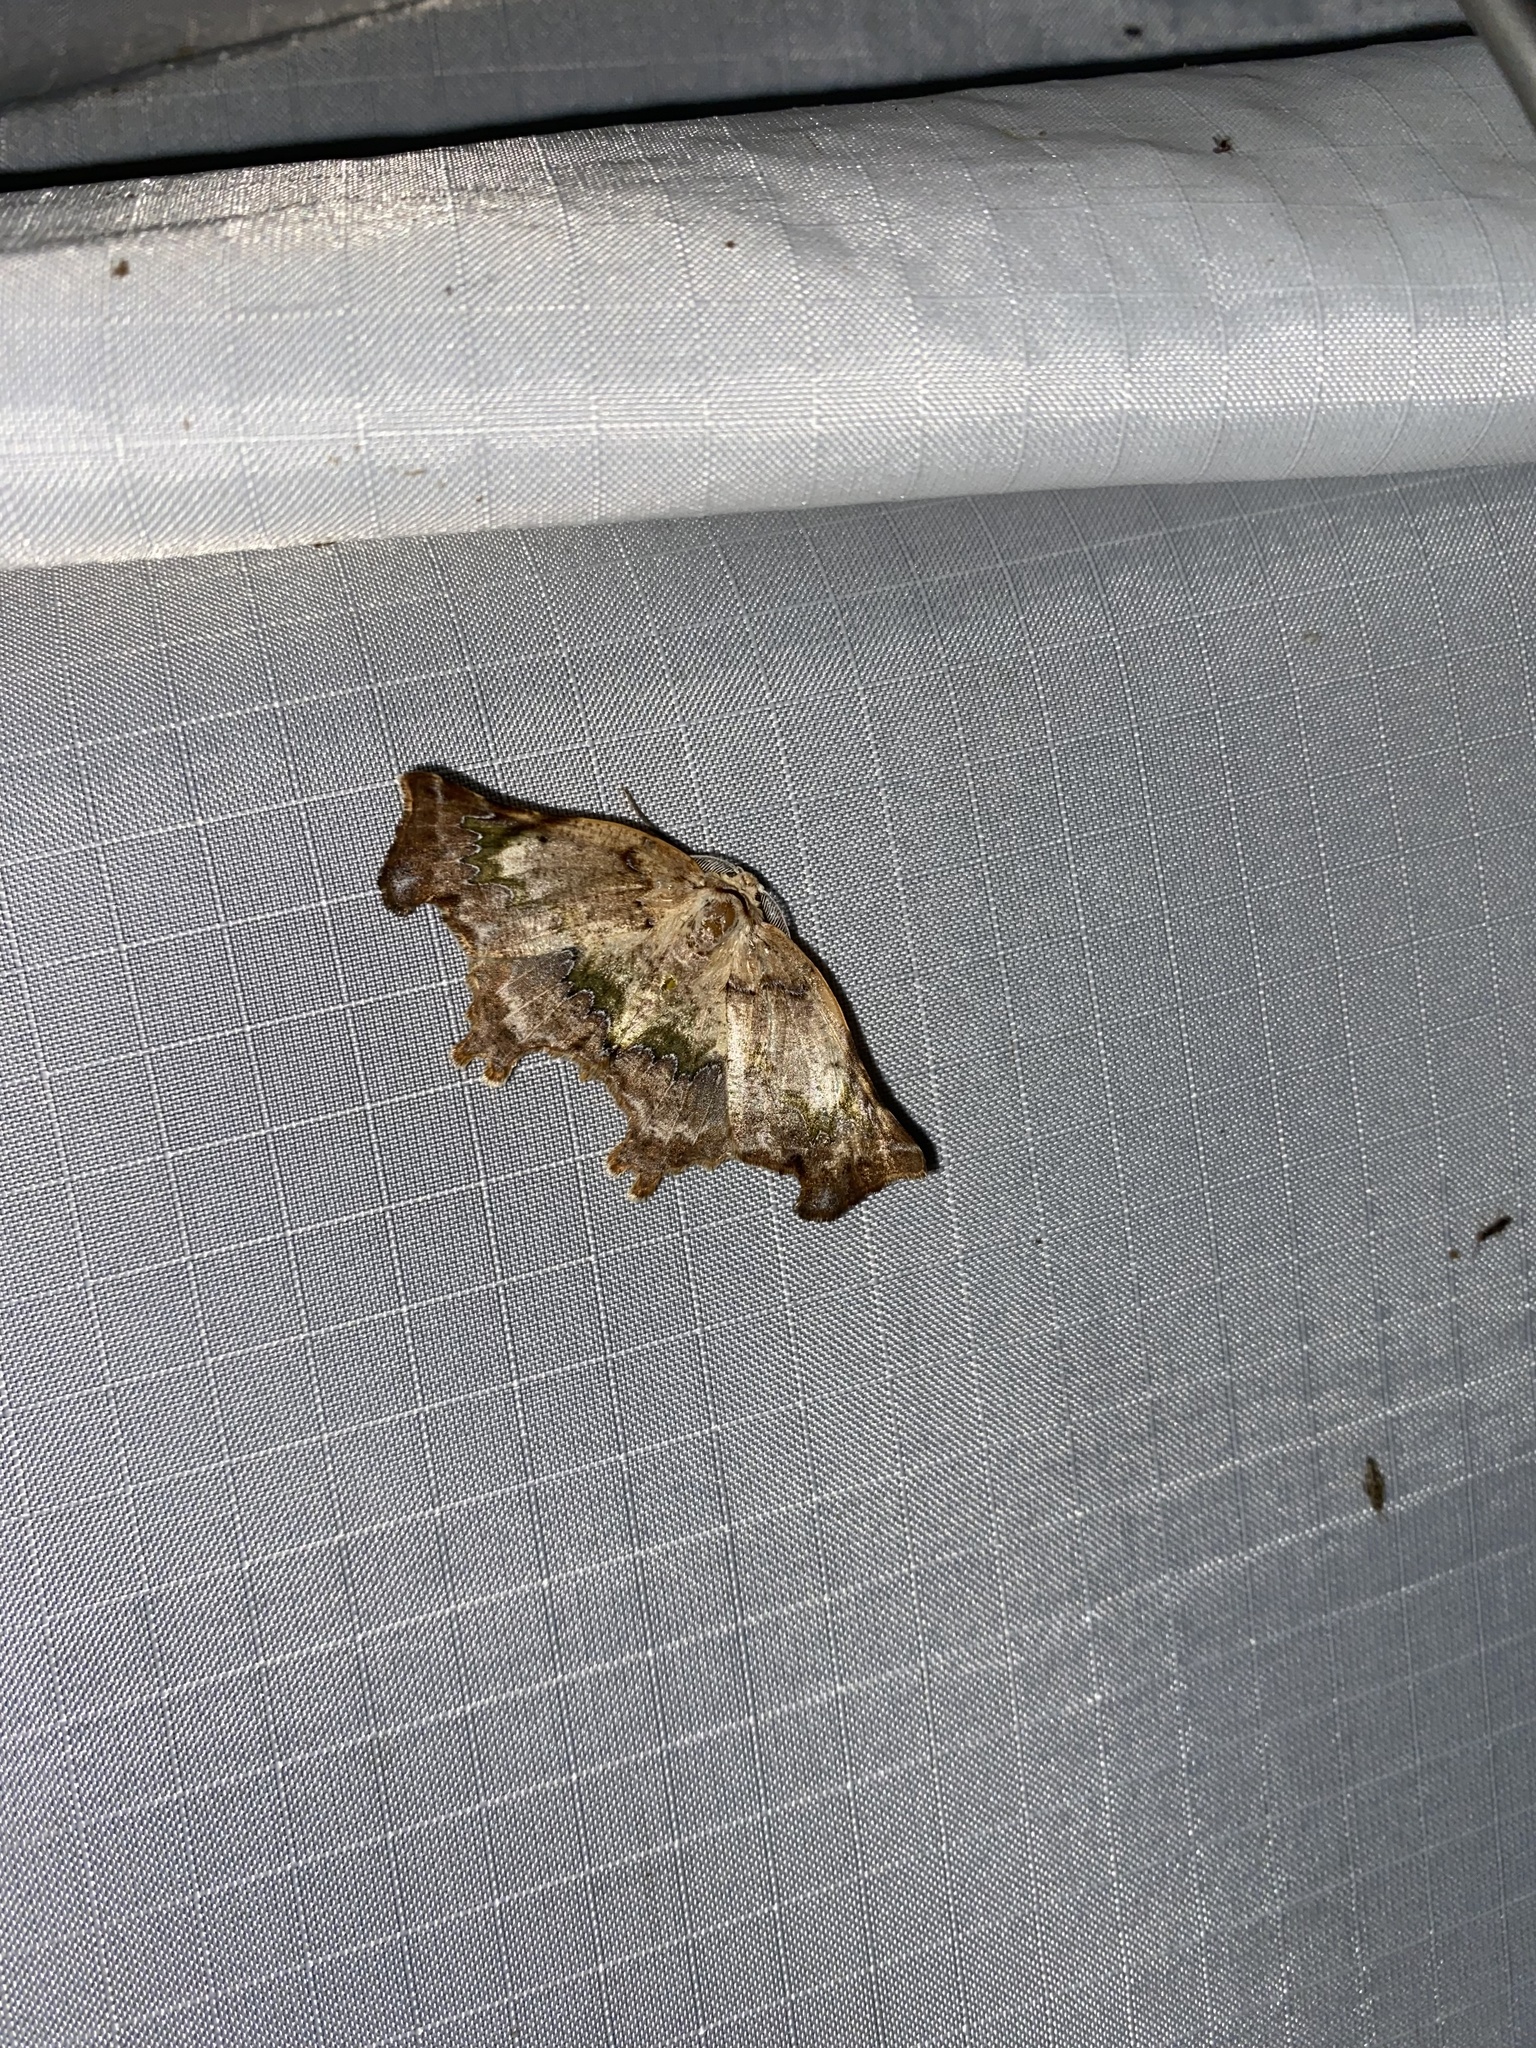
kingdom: Animalia
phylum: Arthropoda
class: Insecta
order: Lepidoptera
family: Geometridae
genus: Tmetomorpha
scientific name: Tmetomorpha bitias
